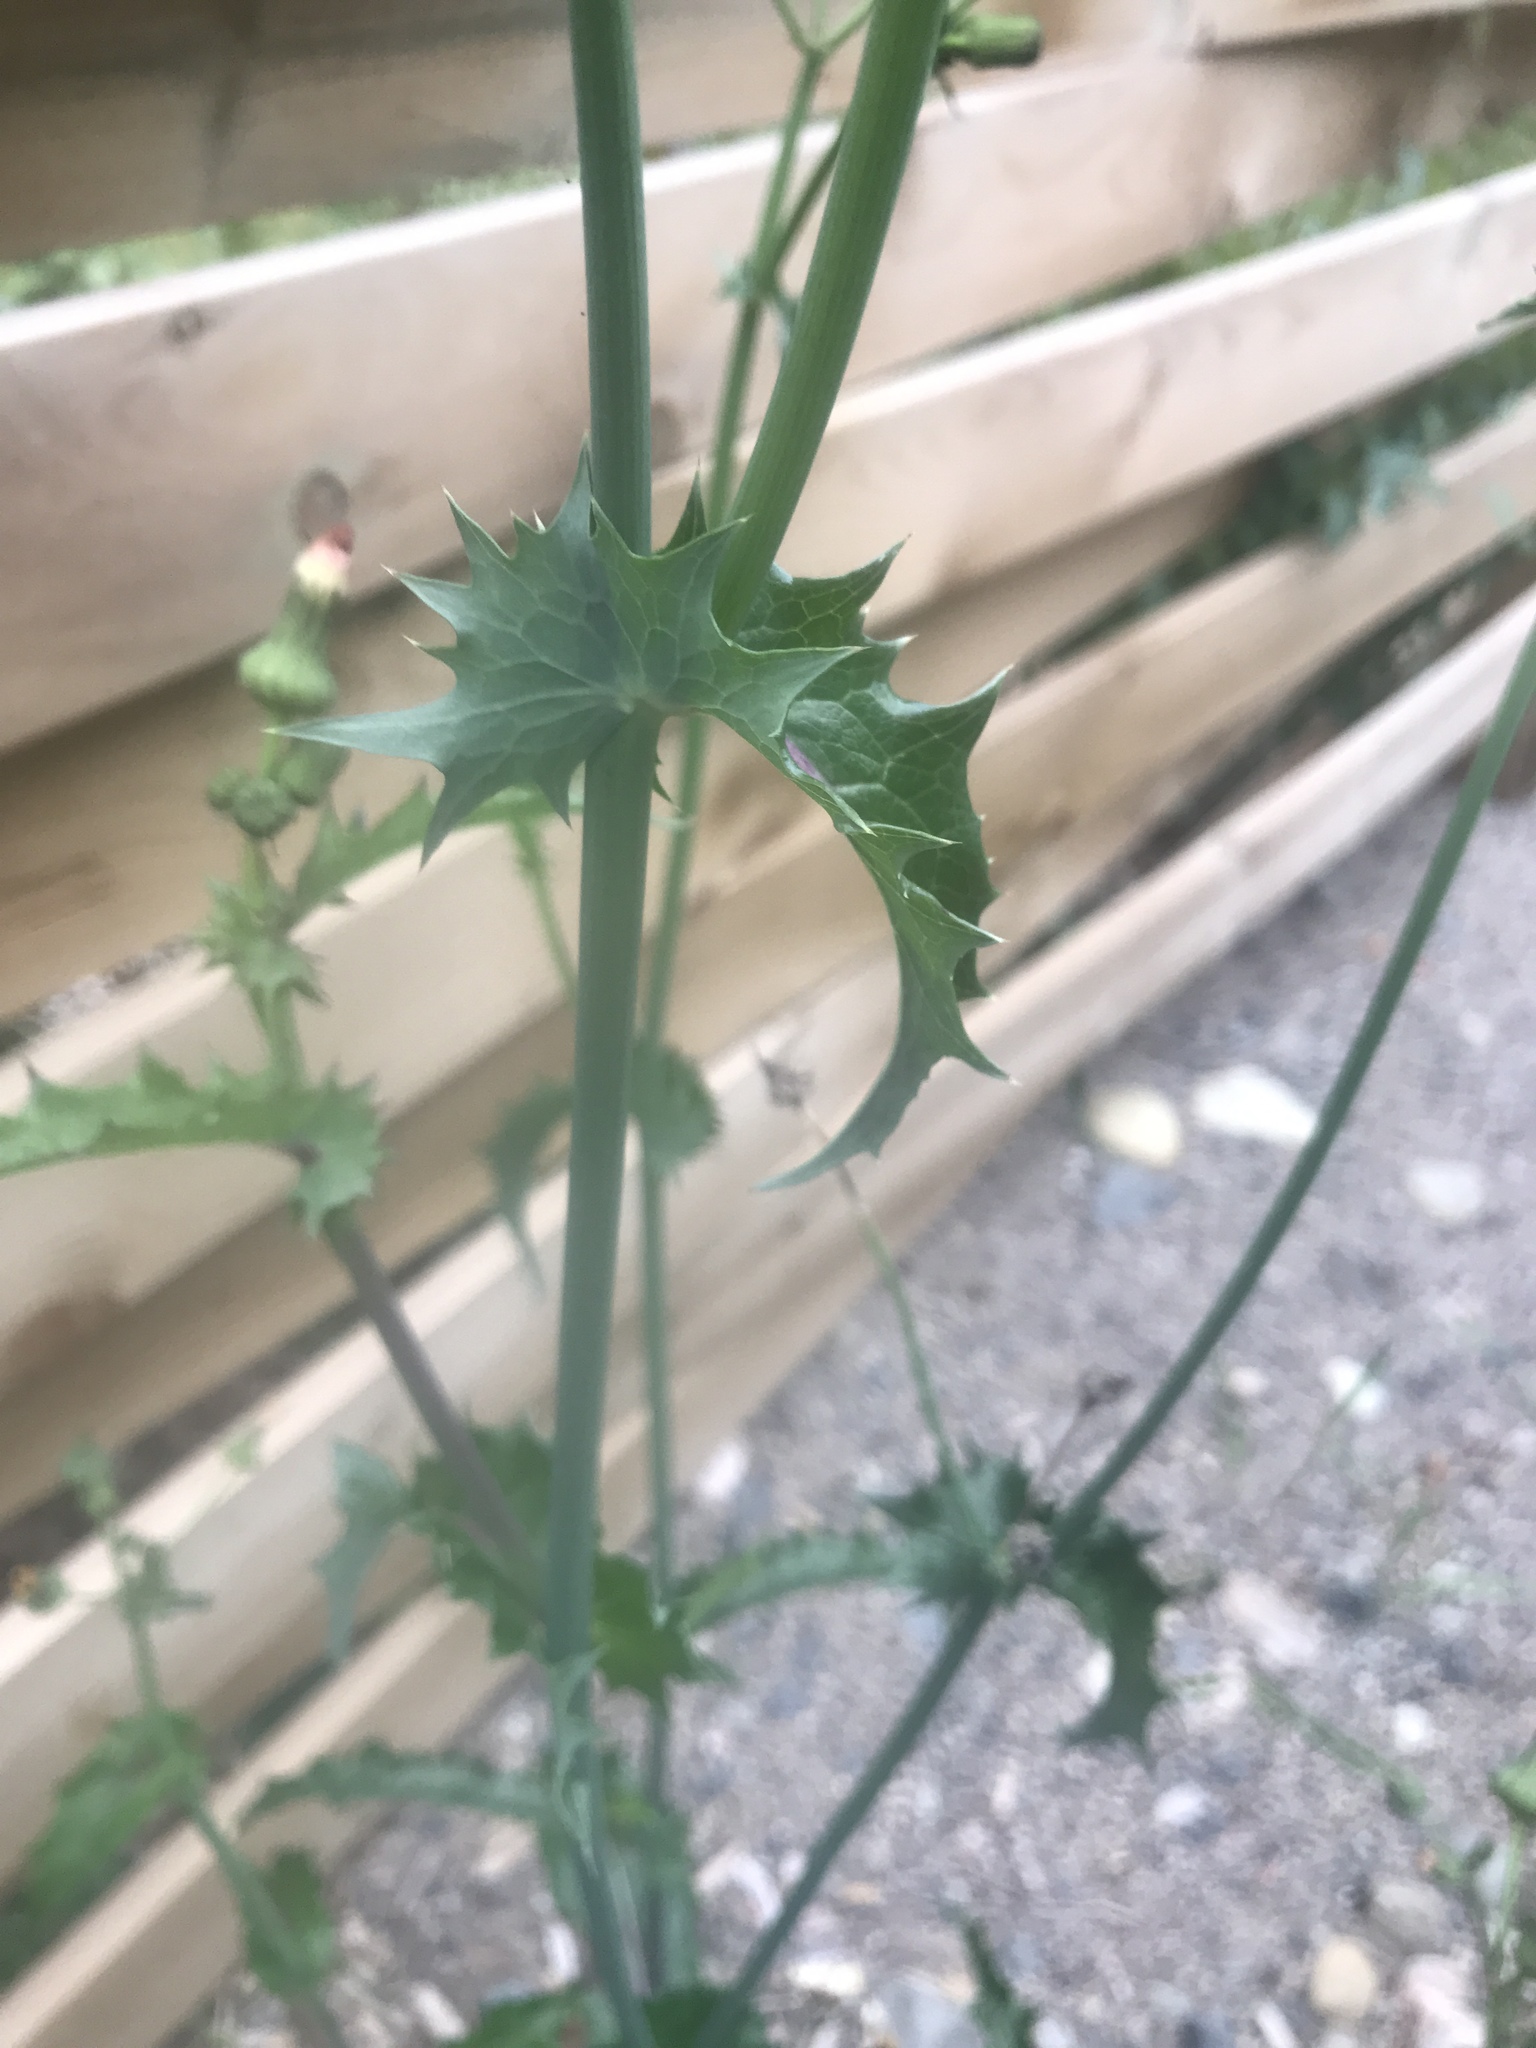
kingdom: Plantae
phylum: Tracheophyta
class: Magnoliopsida
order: Asterales
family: Asteraceae
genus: Sonchus
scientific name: Sonchus asper
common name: Prickly sow-thistle
